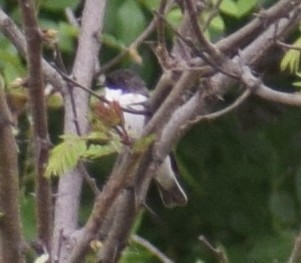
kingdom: Animalia
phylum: Chordata
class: Aves
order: Passeriformes
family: Muscicapidae
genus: Ficedula
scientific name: Ficedula hypoleuca
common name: European pied flycatcher
